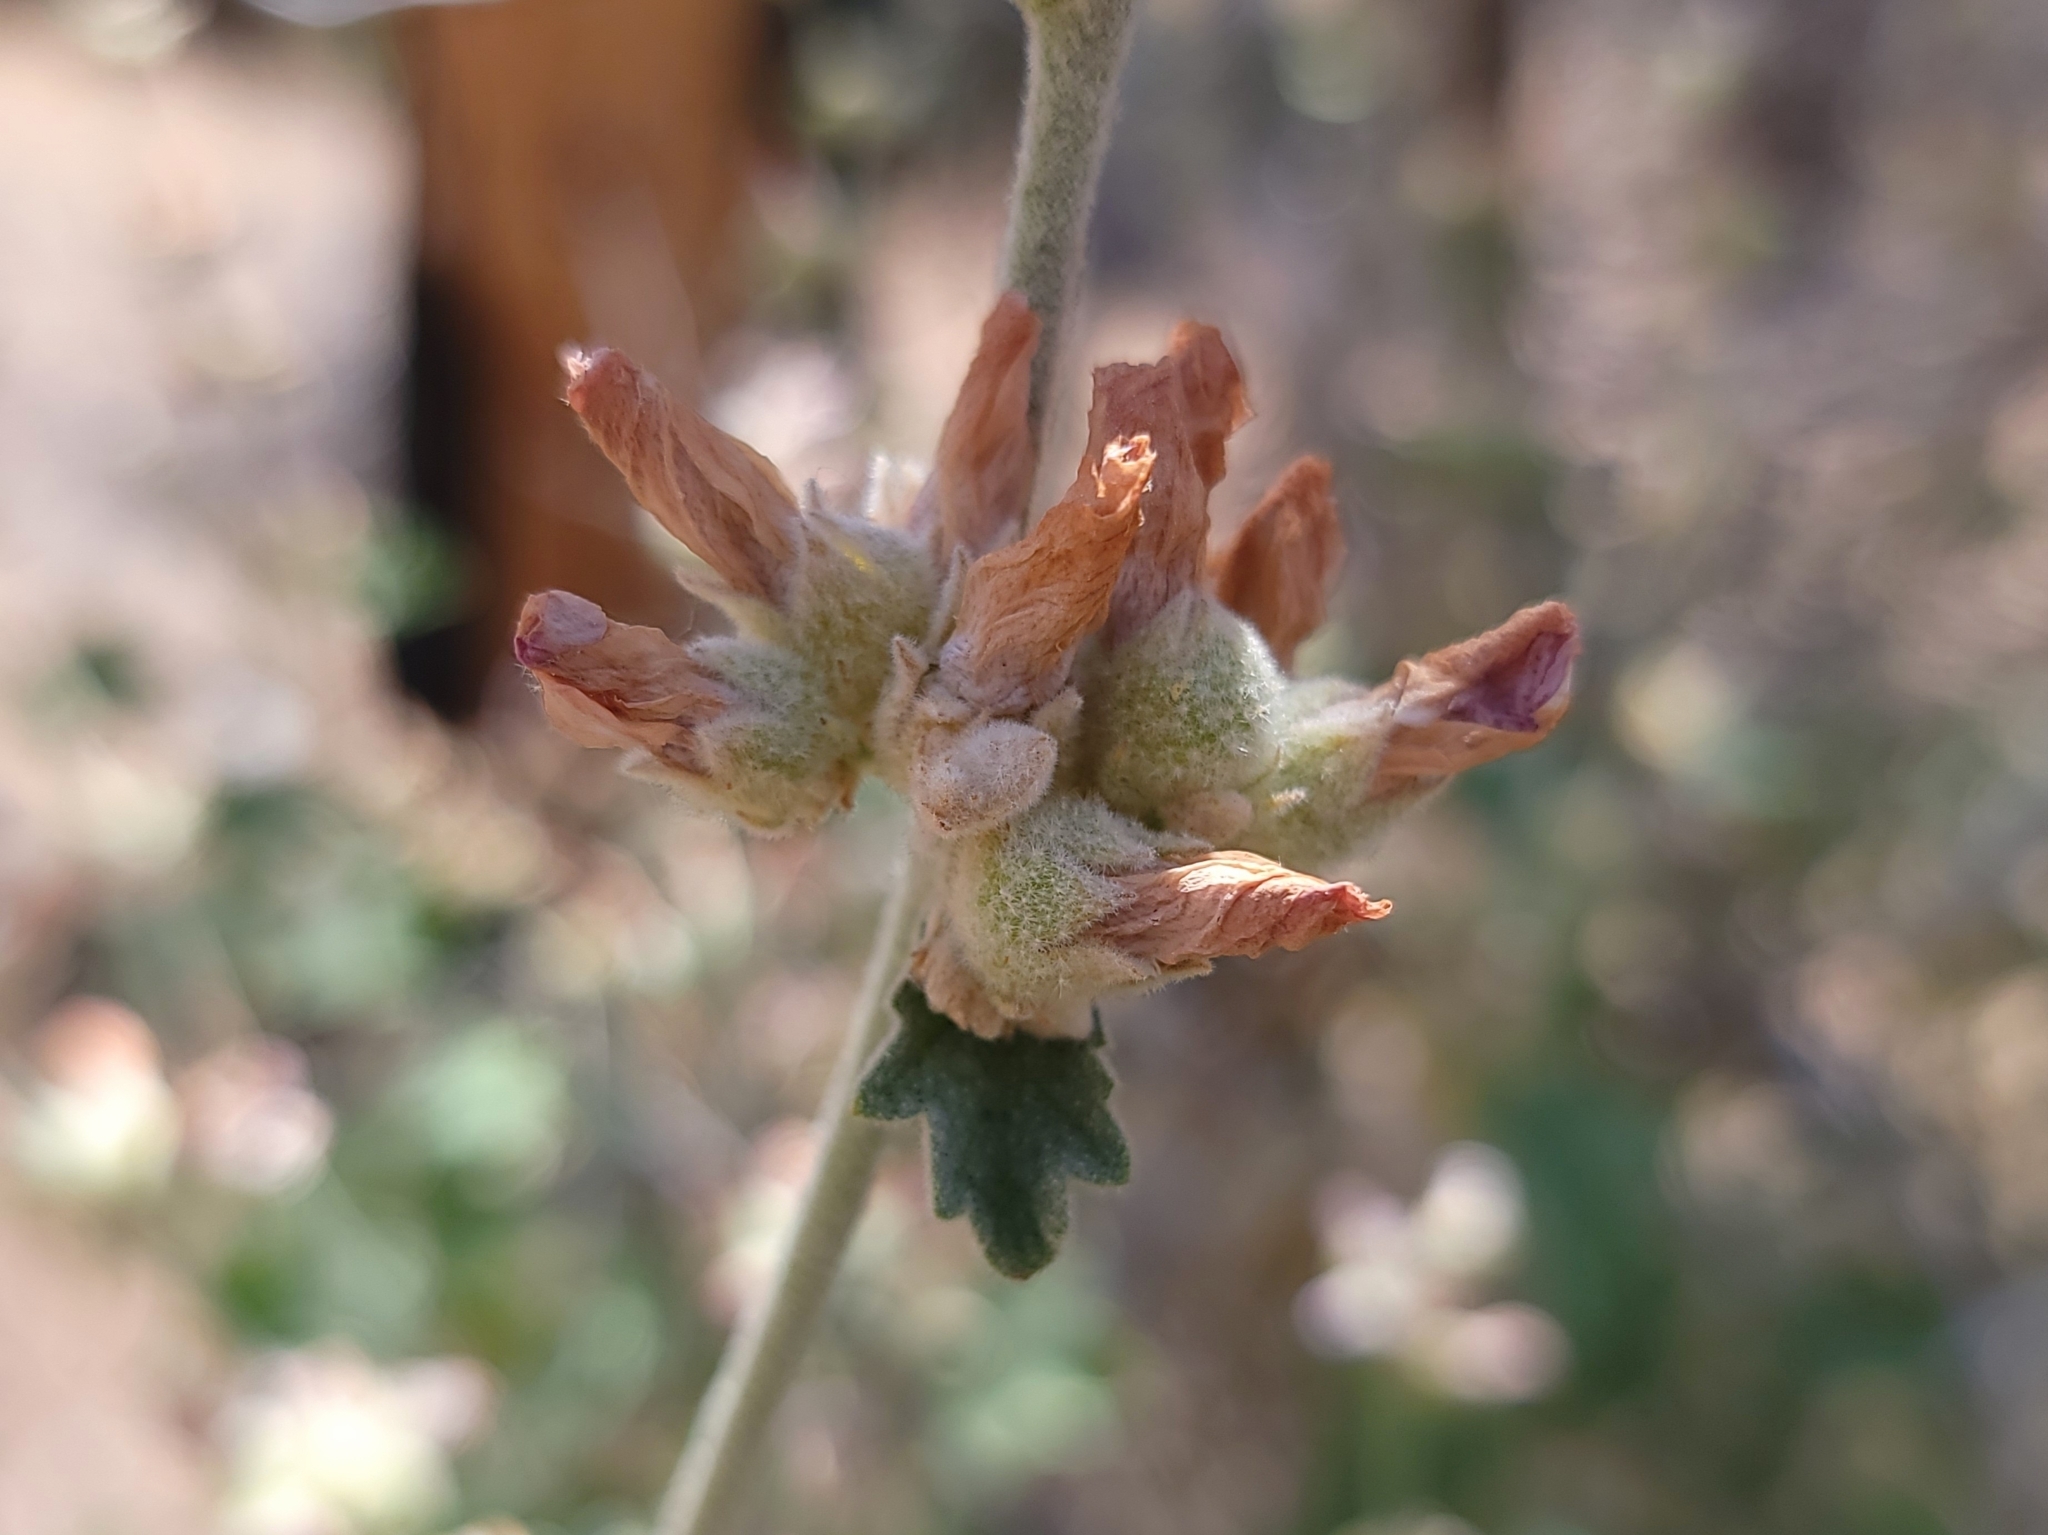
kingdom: Plantae
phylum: Tracheophyta
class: Magnoliopsida
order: Malvales
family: Malvaceae
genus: Malacothamnus
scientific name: Malacothamnus fremontii
